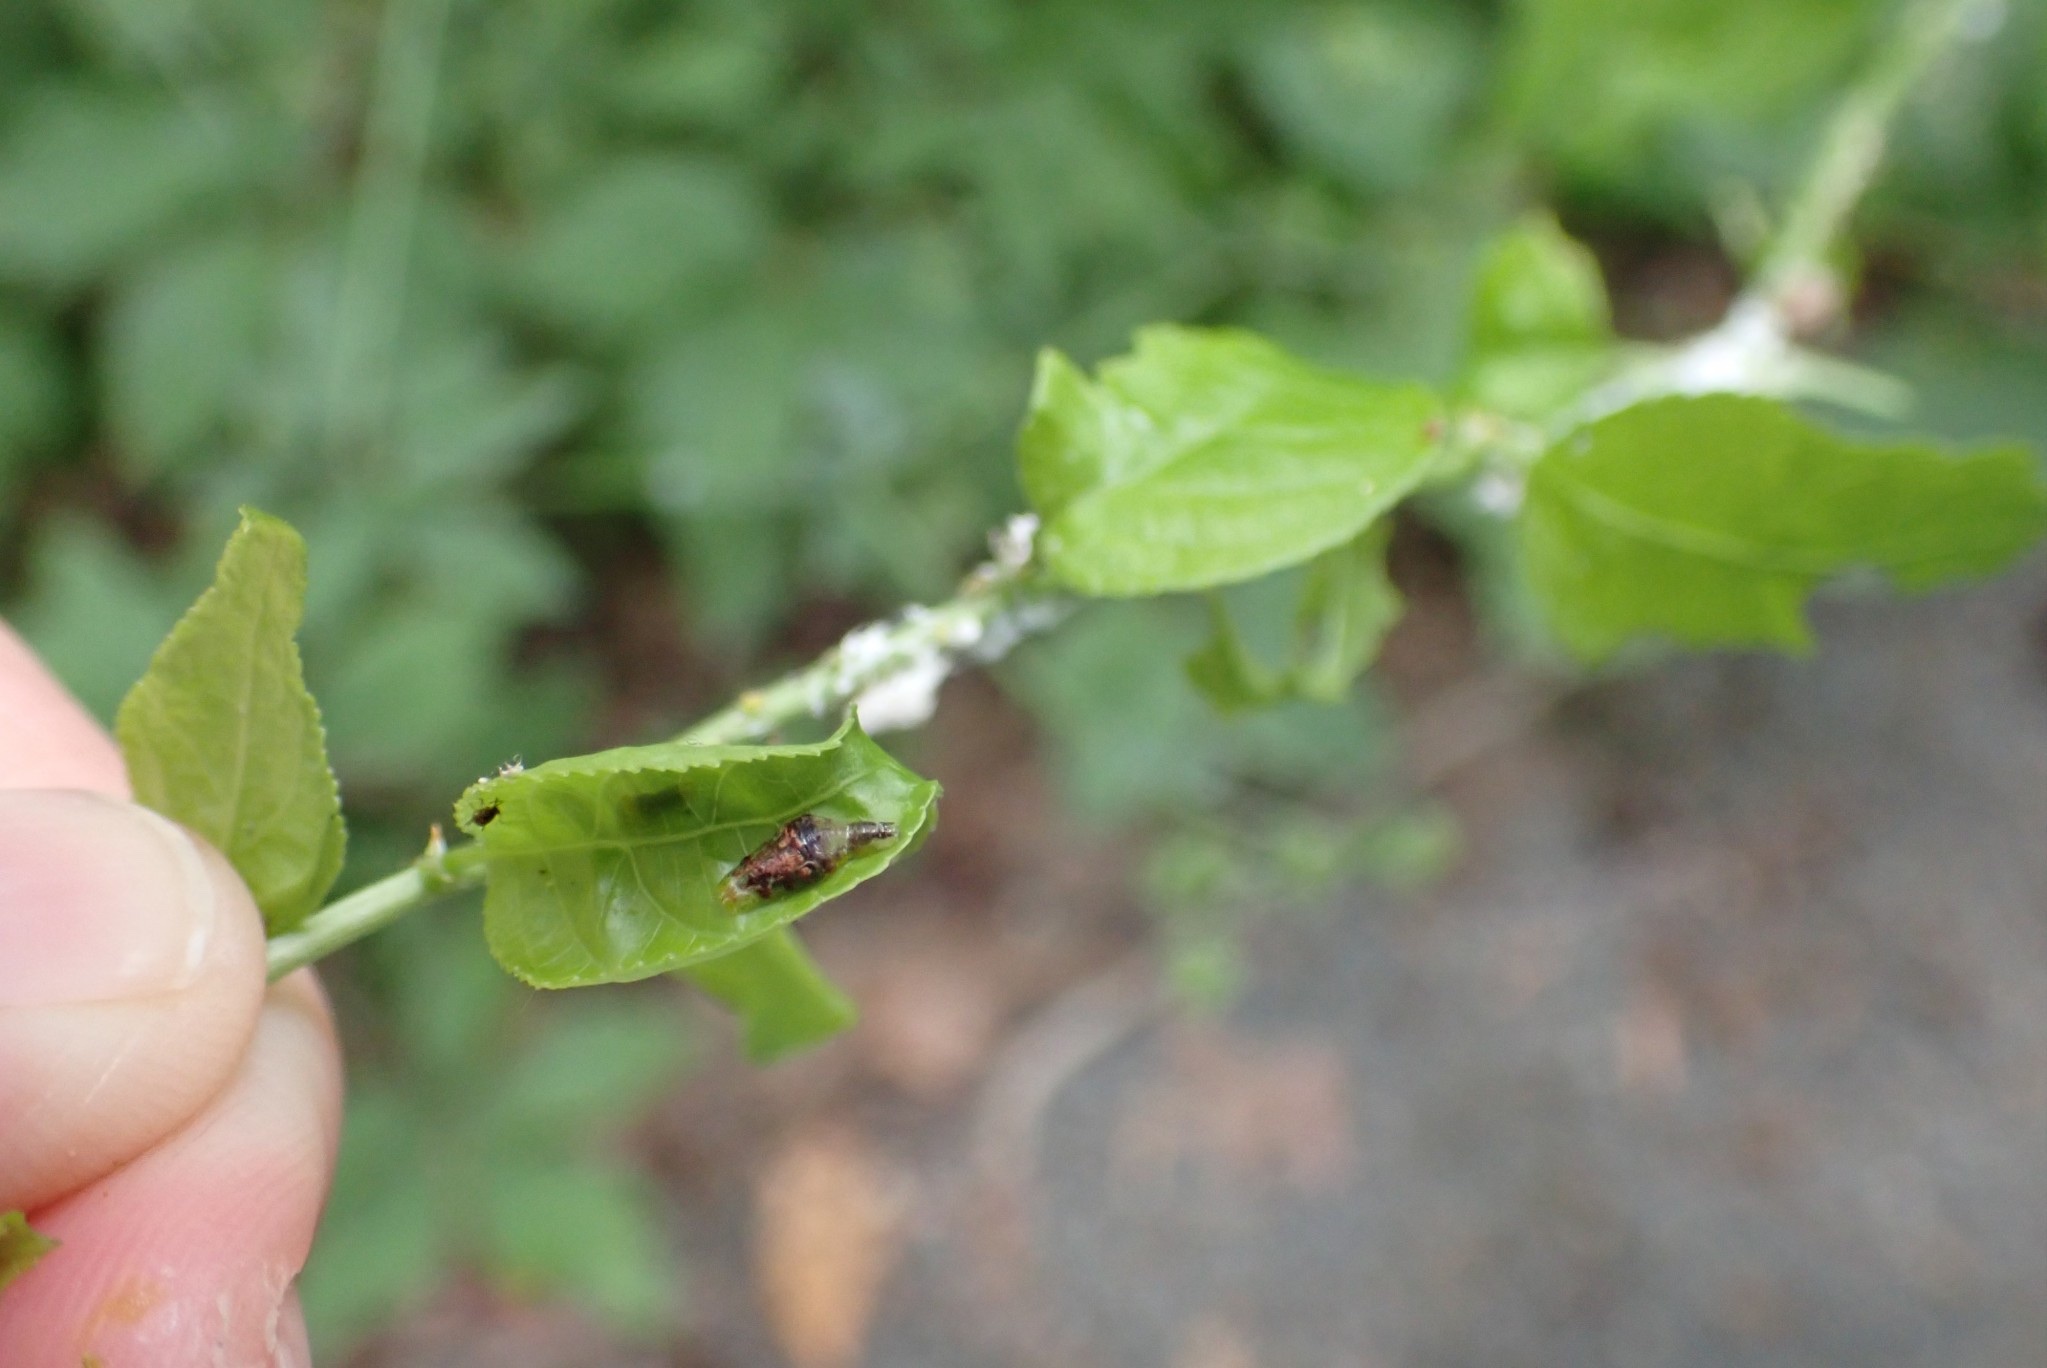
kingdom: Animalia
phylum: Arthropoda
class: Insecta
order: Diptera
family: Syrphidae
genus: Ocyptamus
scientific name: Ocyptamus fuscipennis
